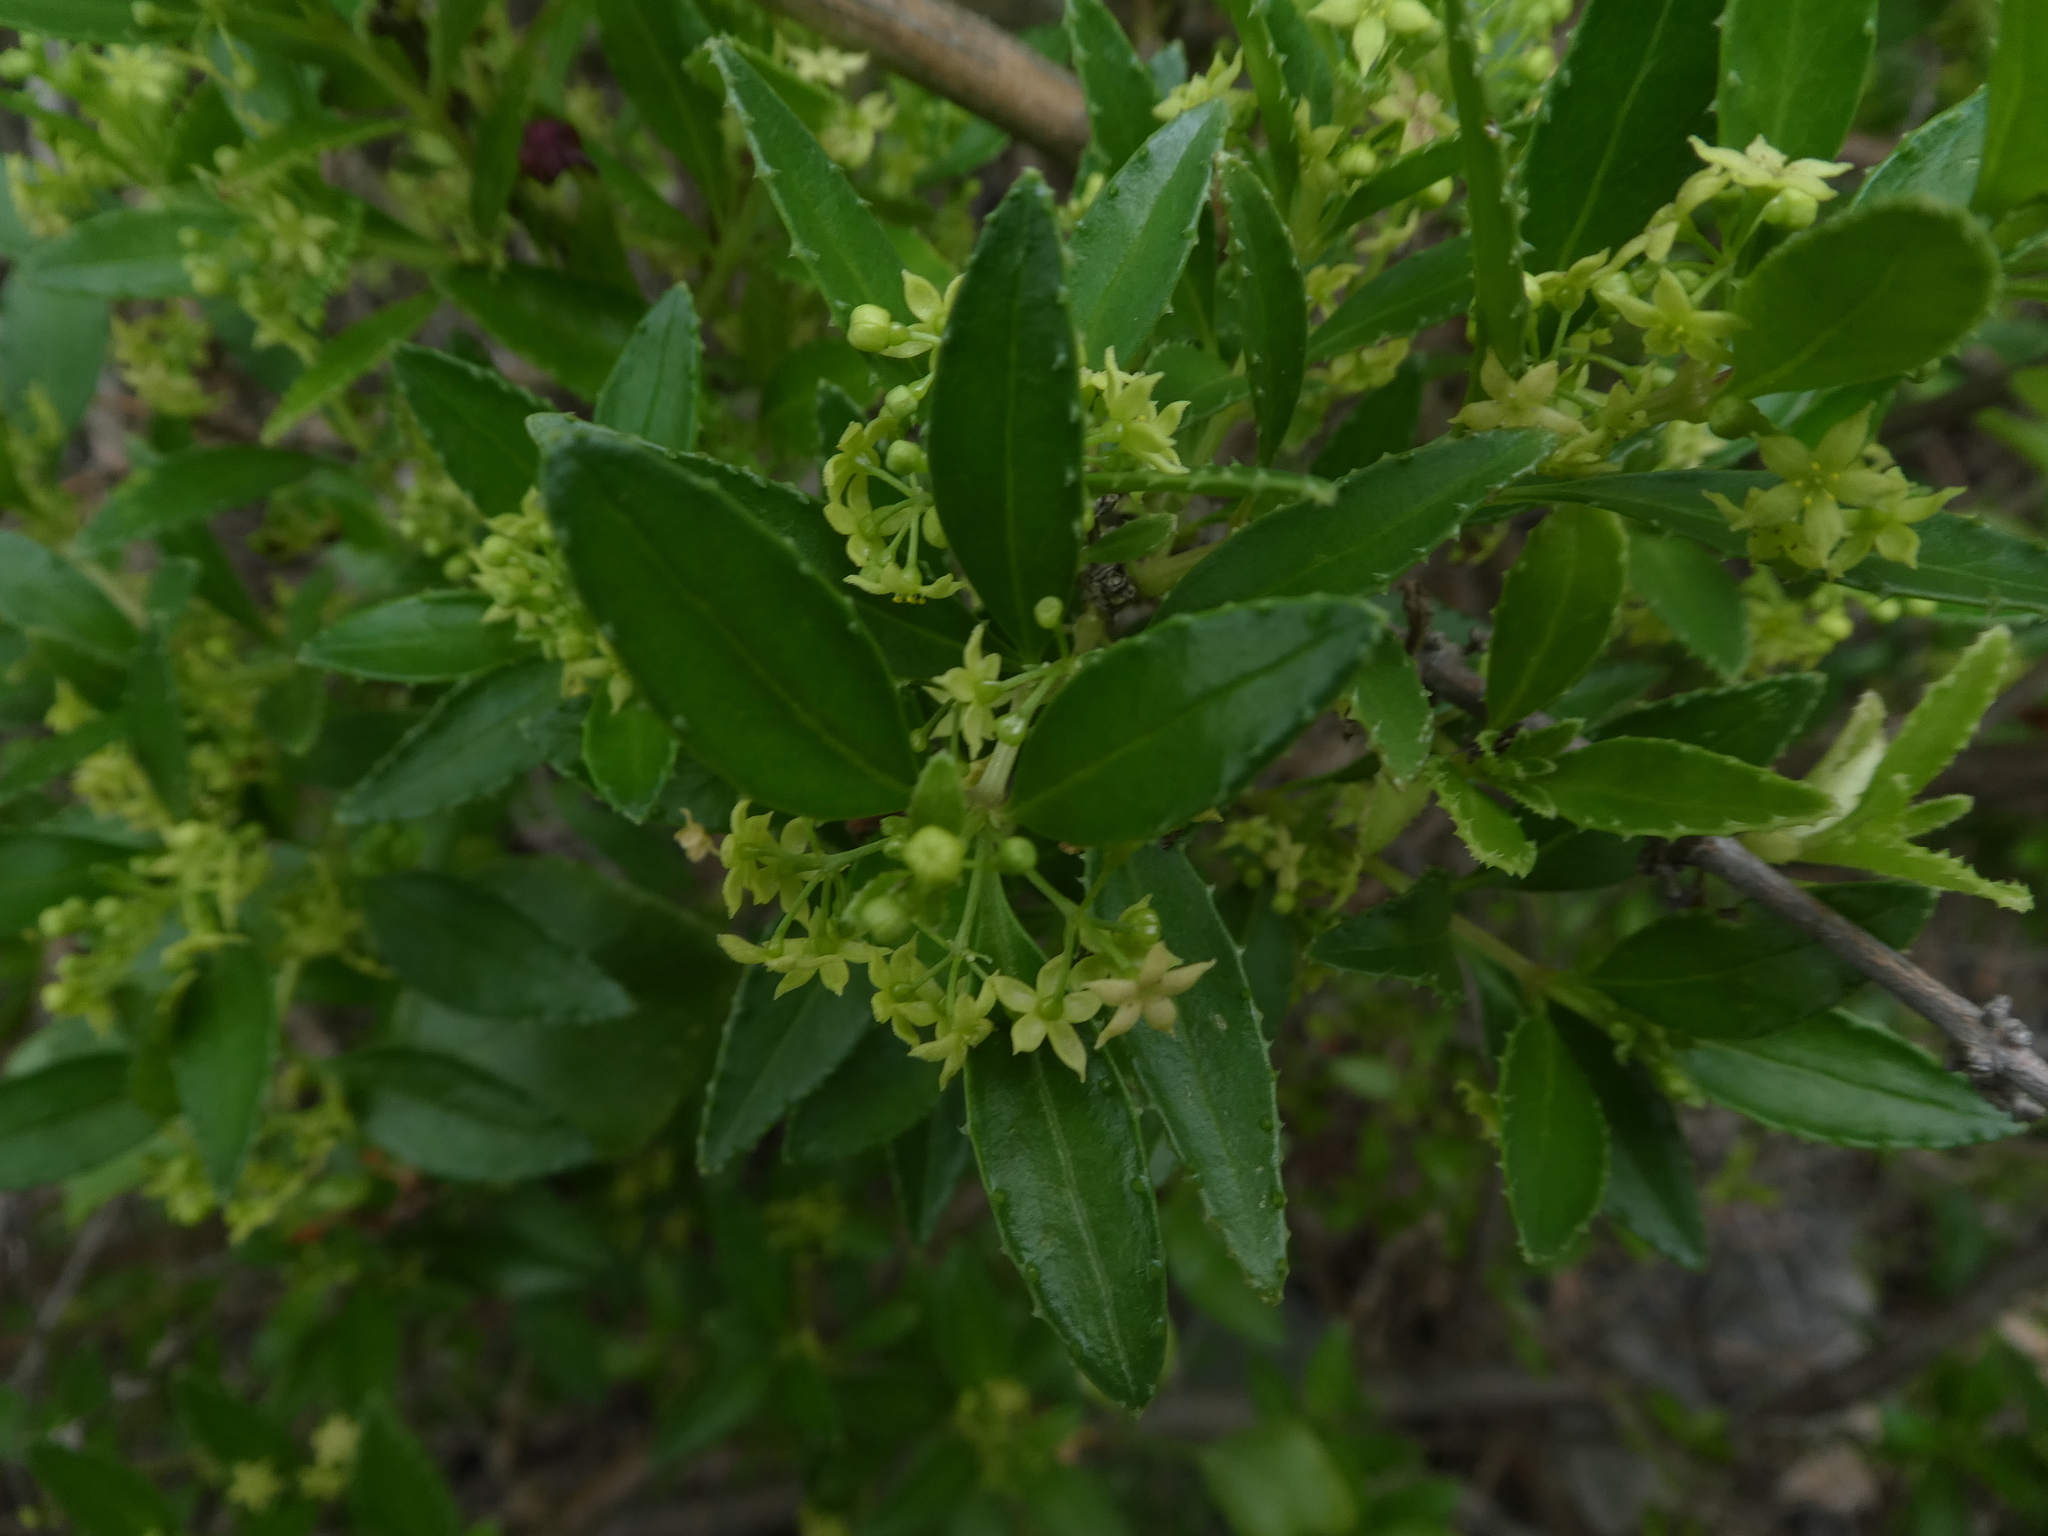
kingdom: Plantae
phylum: Tracheophyta
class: Magnoliopsida
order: Gentianales
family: Rubiaceae
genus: Rubia
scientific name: Rubia fruticosa
